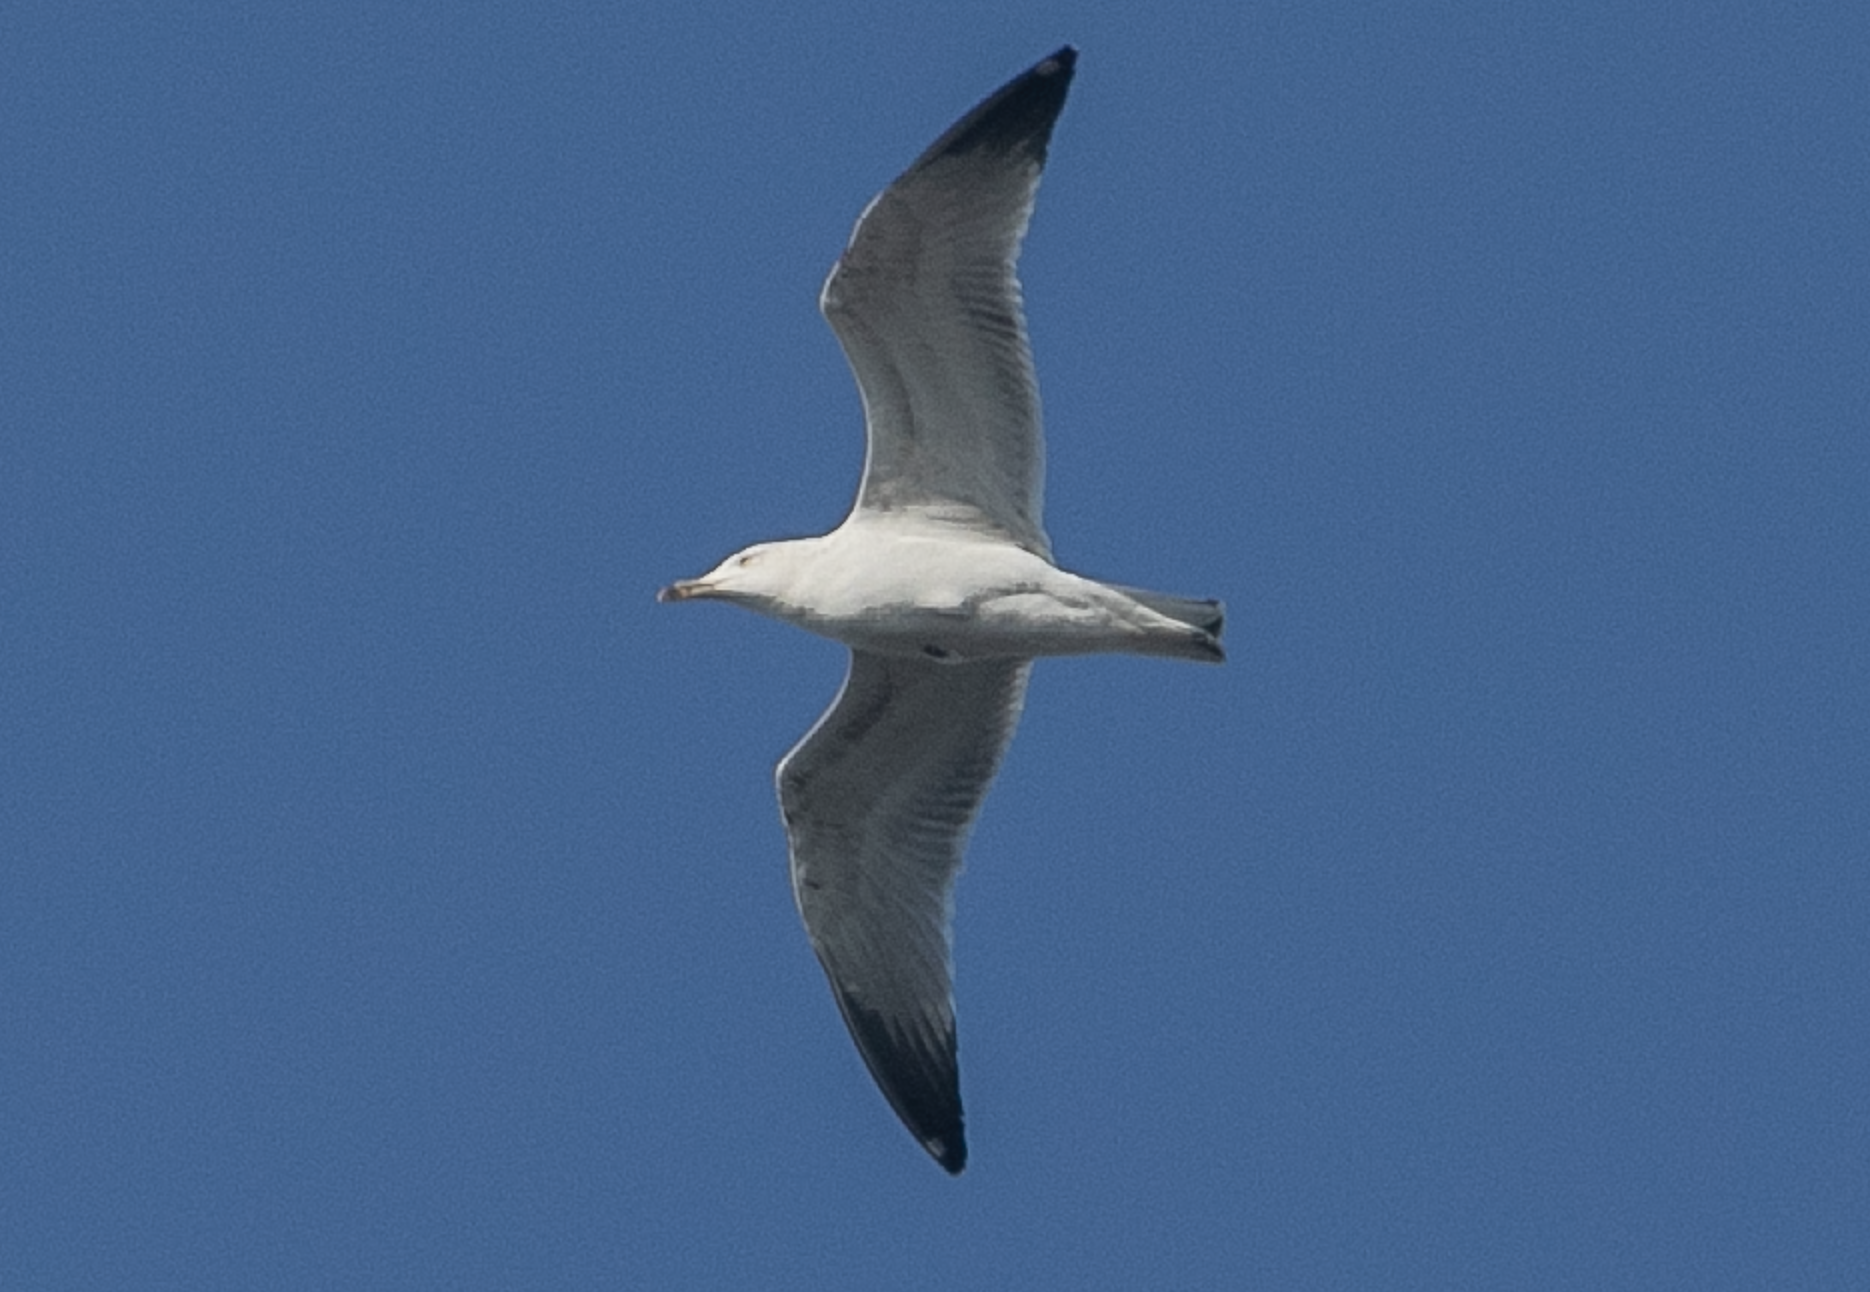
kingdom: Animalia
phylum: Chordata
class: Aves
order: Charadriiformes
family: Laridae
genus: Larus
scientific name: Larus michahellis
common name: Yellow-legged gull
